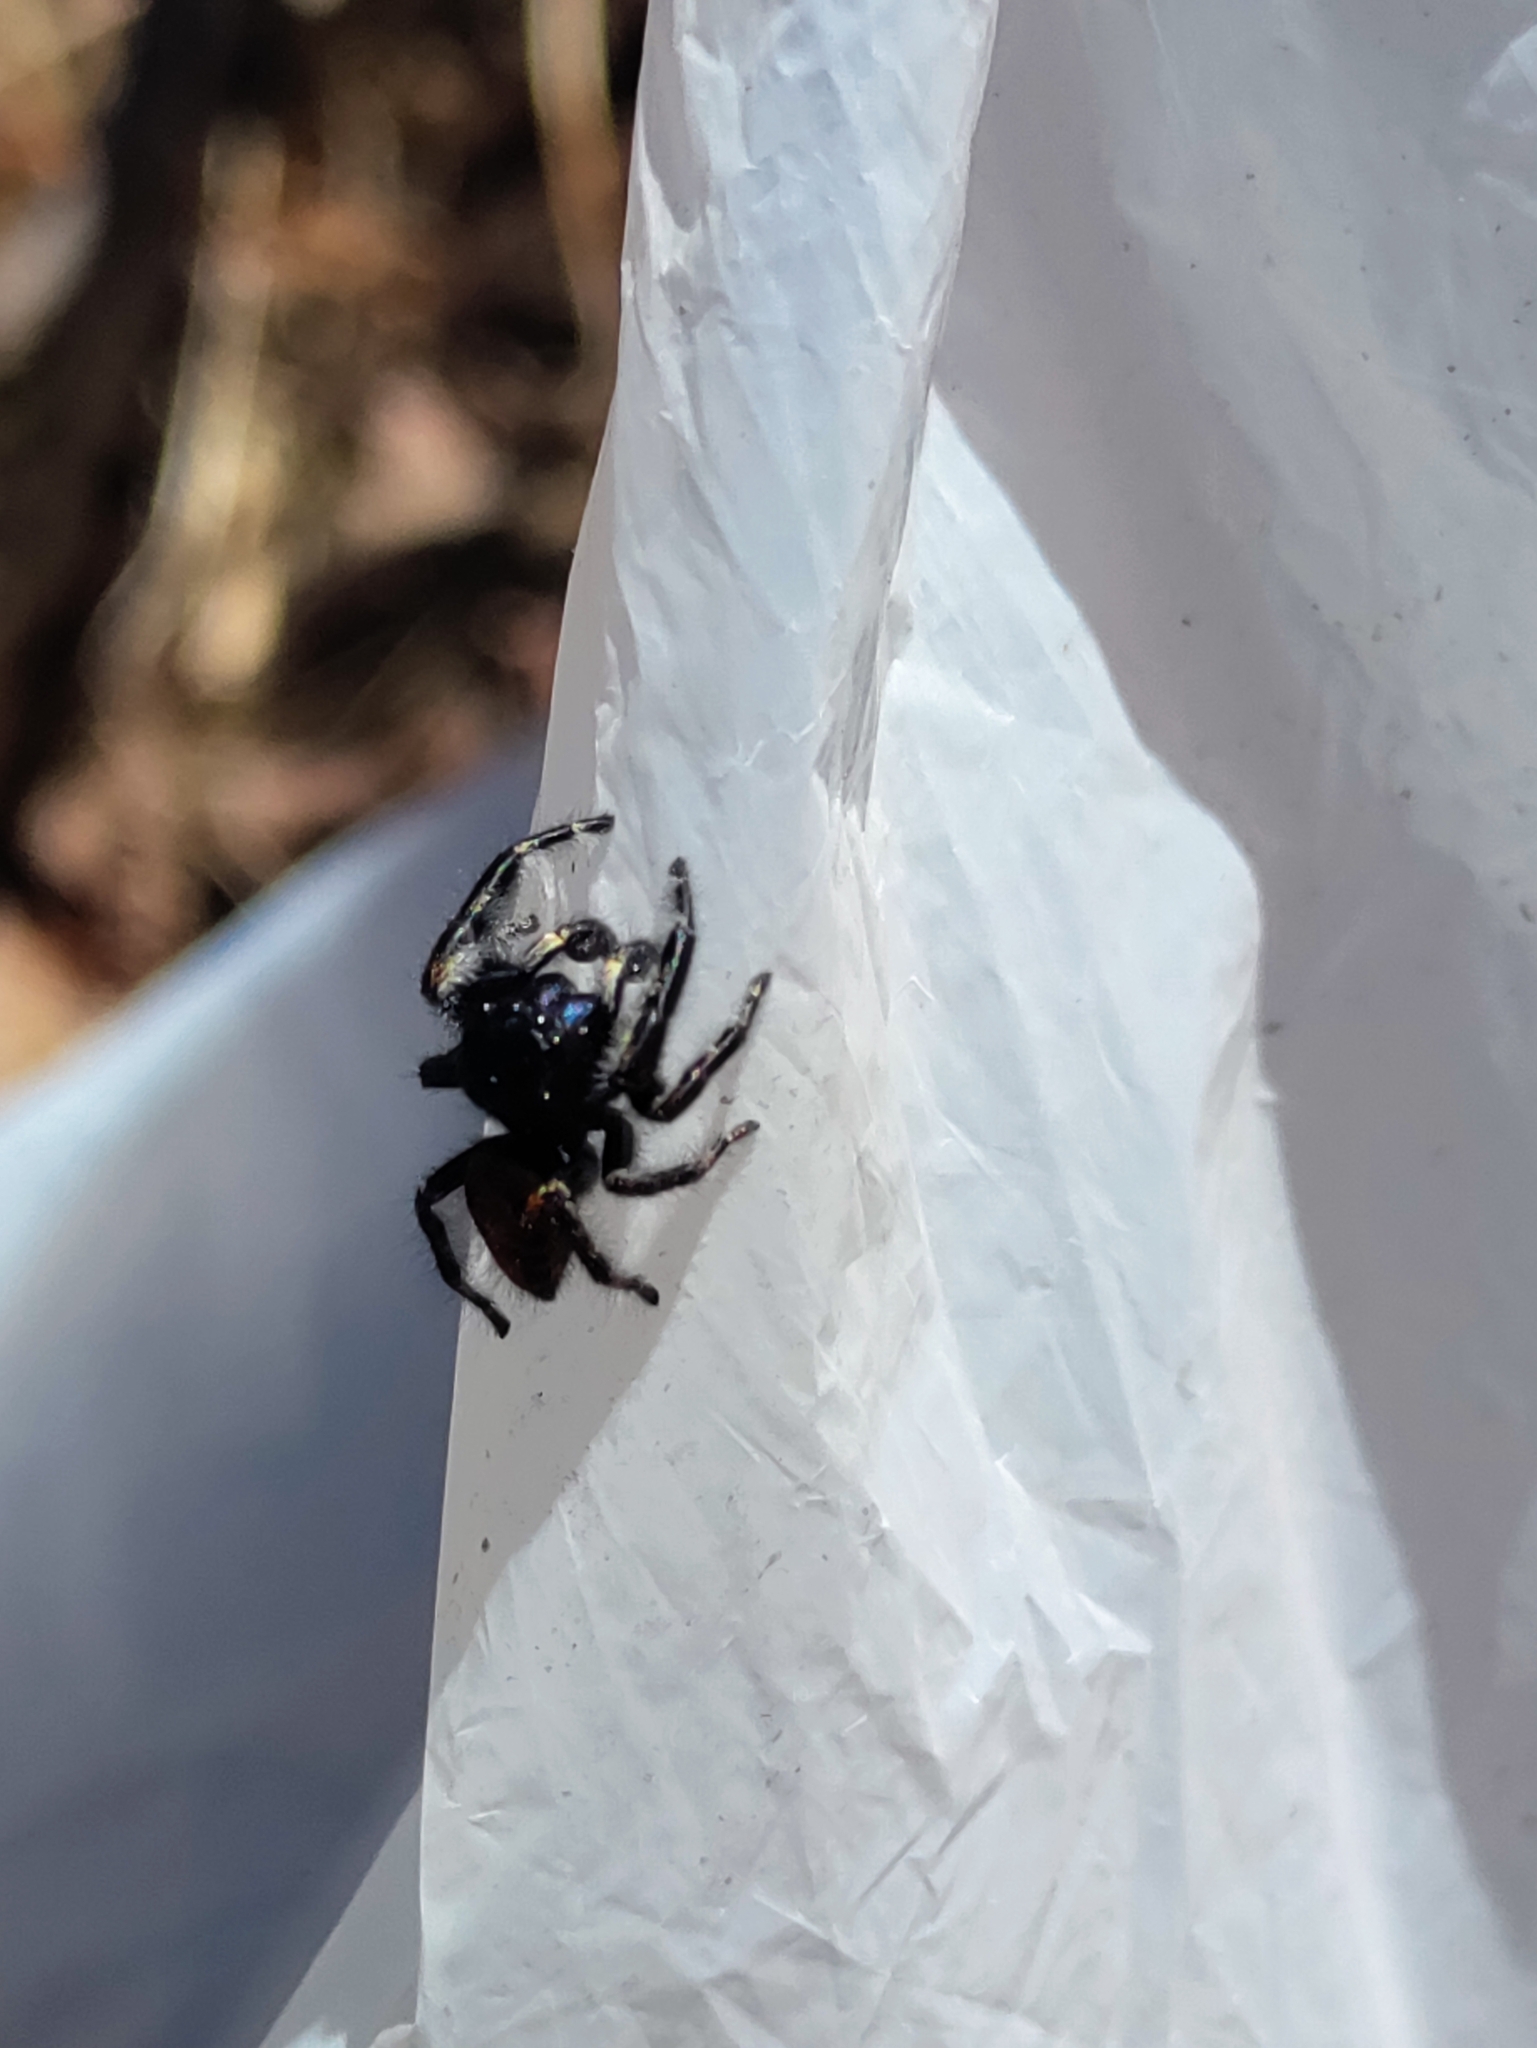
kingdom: Animalia
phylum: Arthropoda
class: Arachnida
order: Araneae
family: Salticidae
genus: Phidippus
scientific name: Phidippus princeps
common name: Grayish jumping spider
